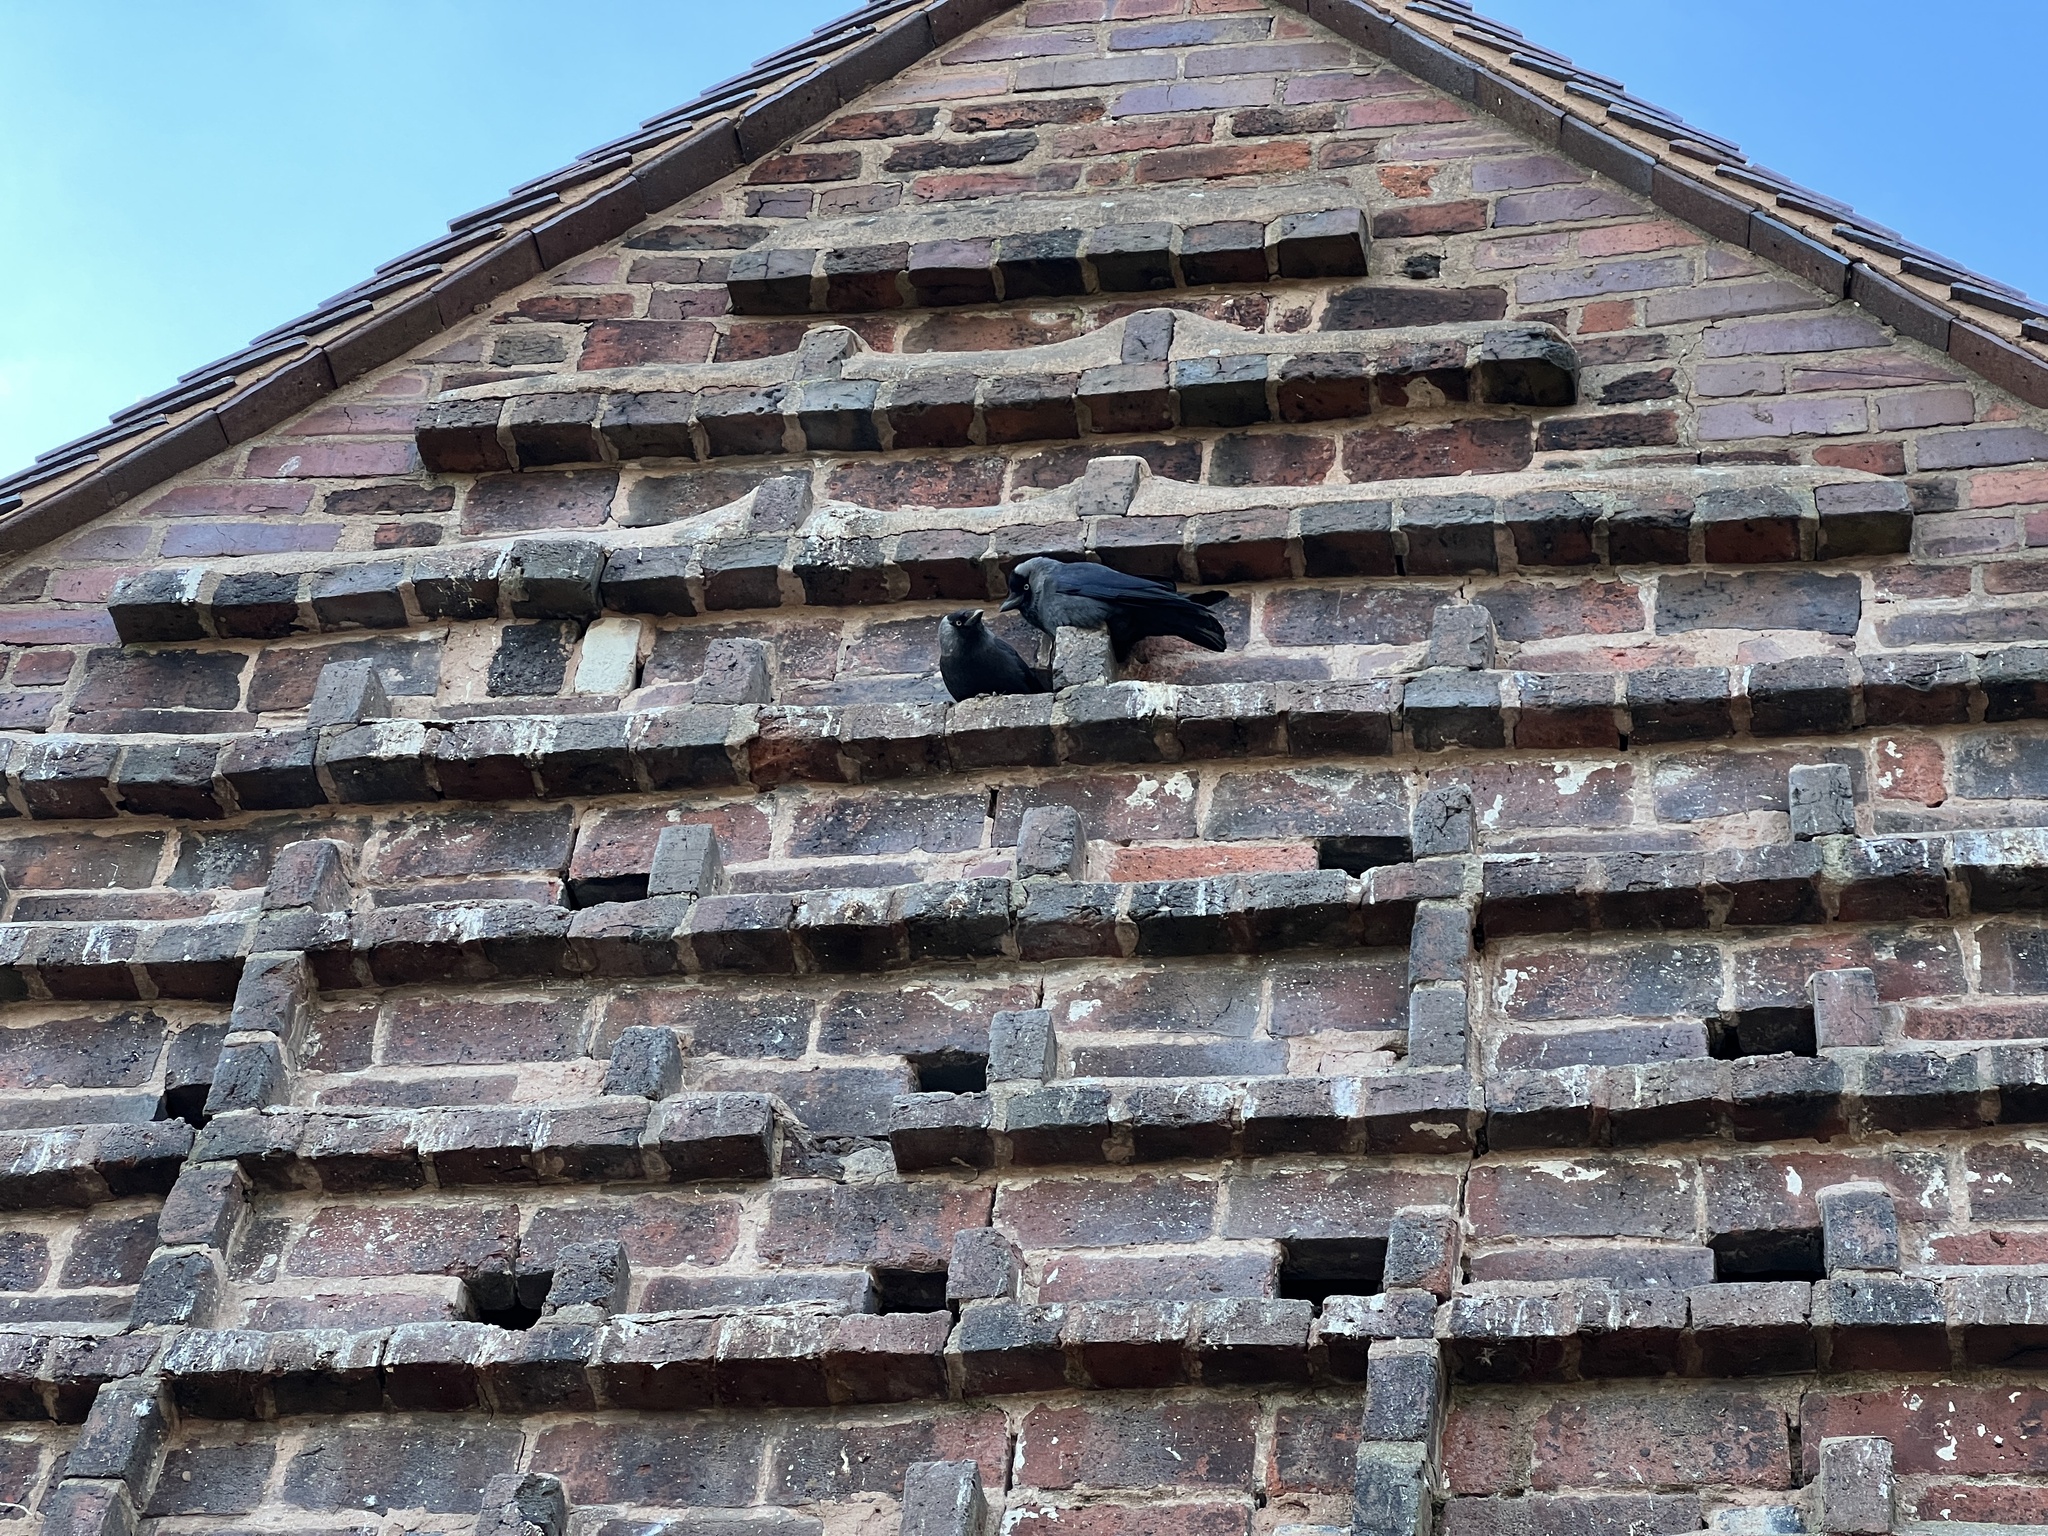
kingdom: Animalia
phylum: Chordata
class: Aves
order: Passeriformes
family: Corvidae
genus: Coloeus
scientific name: Coloeus monedula
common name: Western jackdaw
